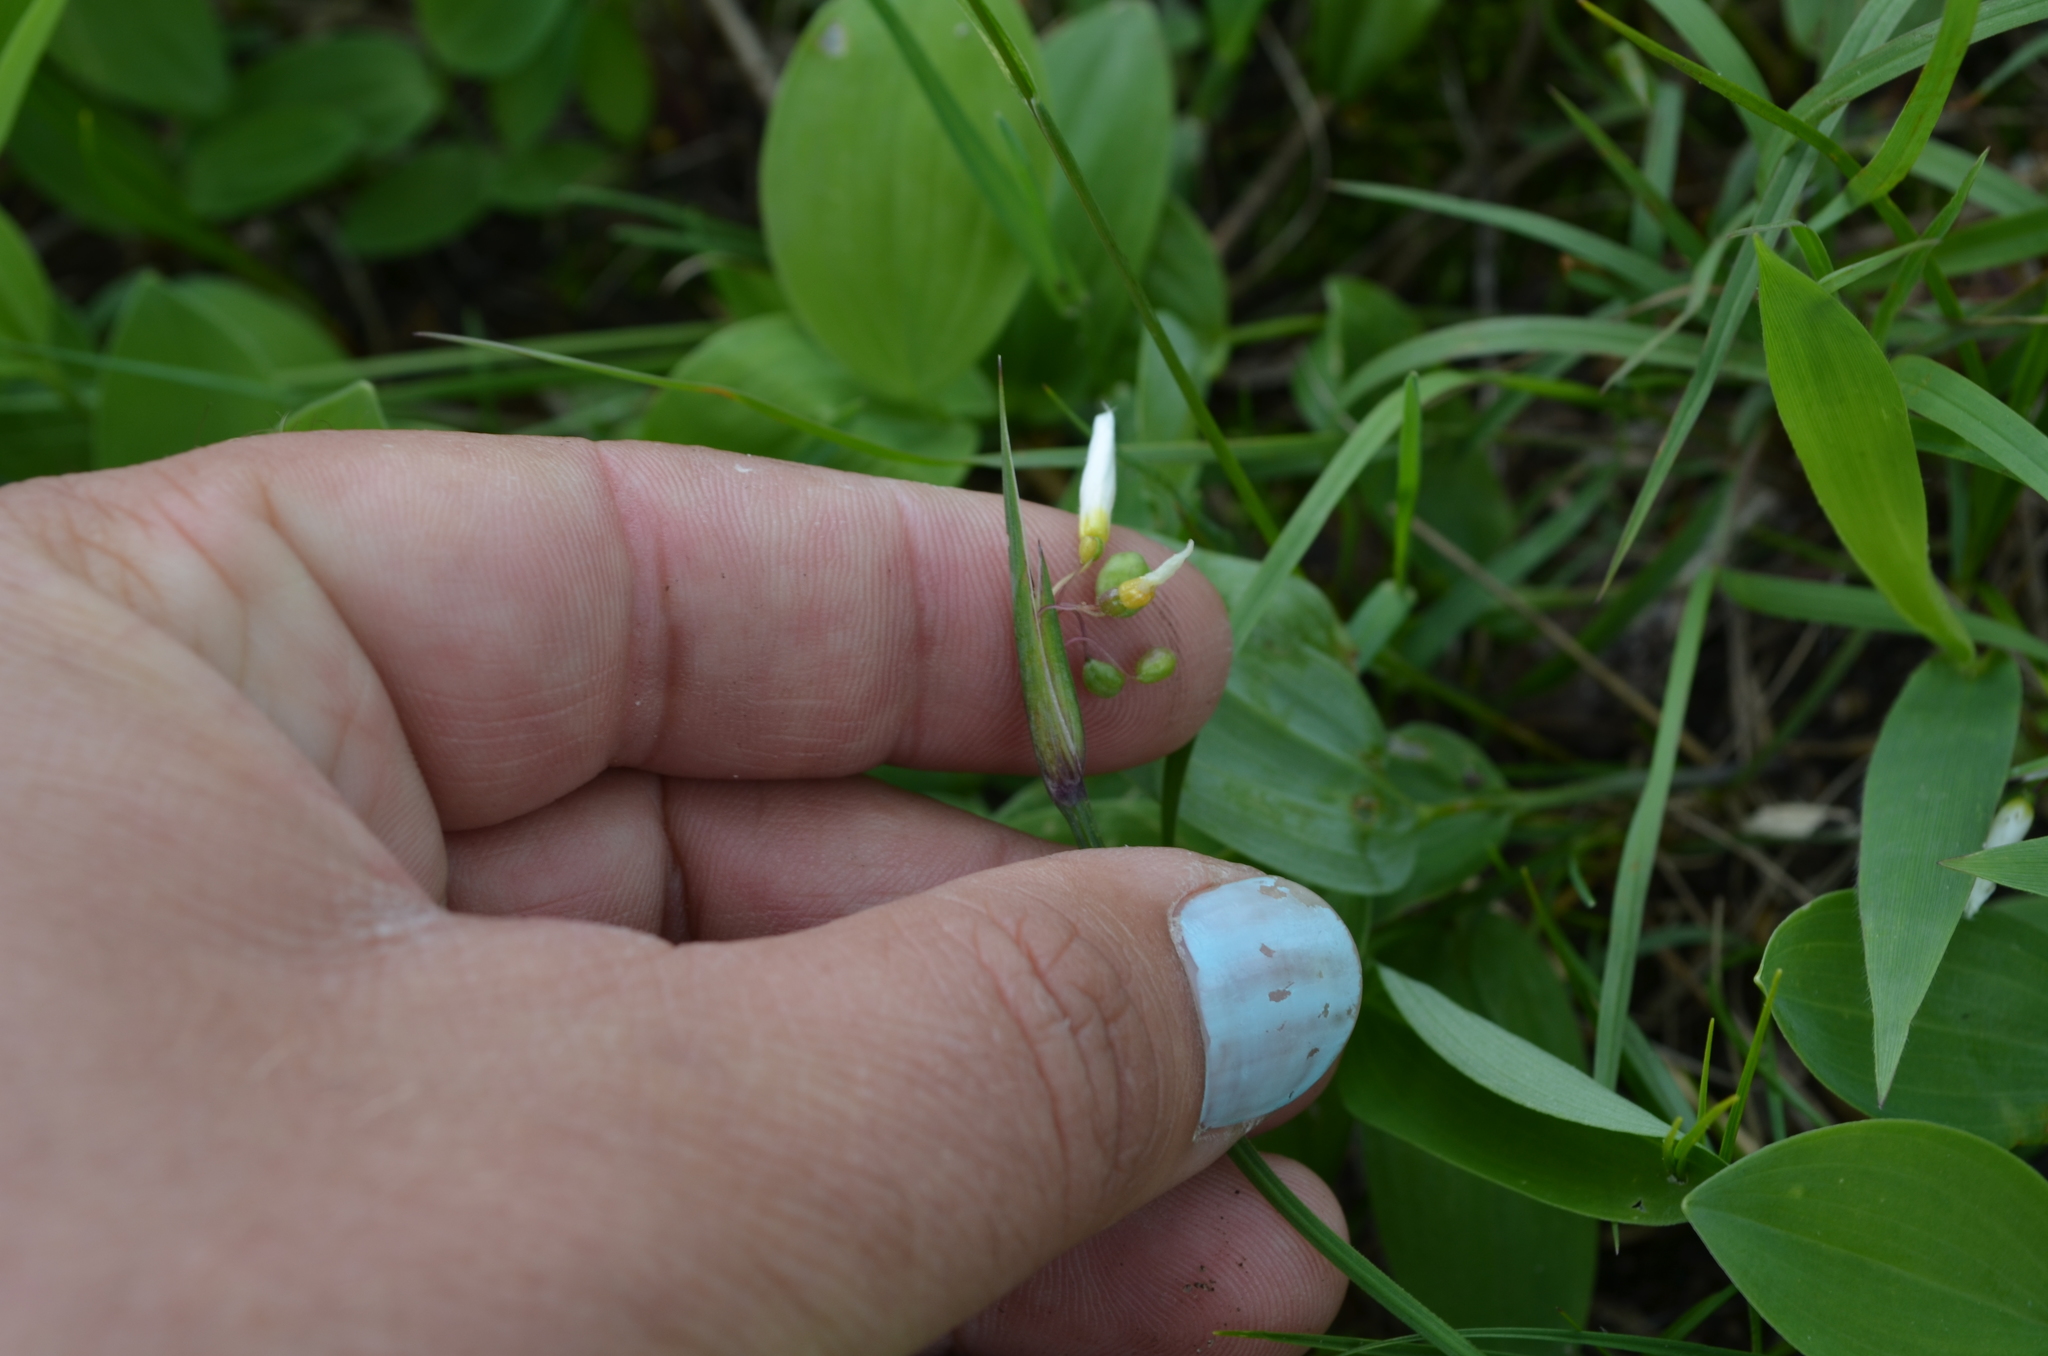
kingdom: Plantae
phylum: Tracheophyta
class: Liliopsida
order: Asparagales
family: Iridaceae
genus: Sisyrinchium
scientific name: Sisyrinchium campestre
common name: Prairie blue-eyed-grass
